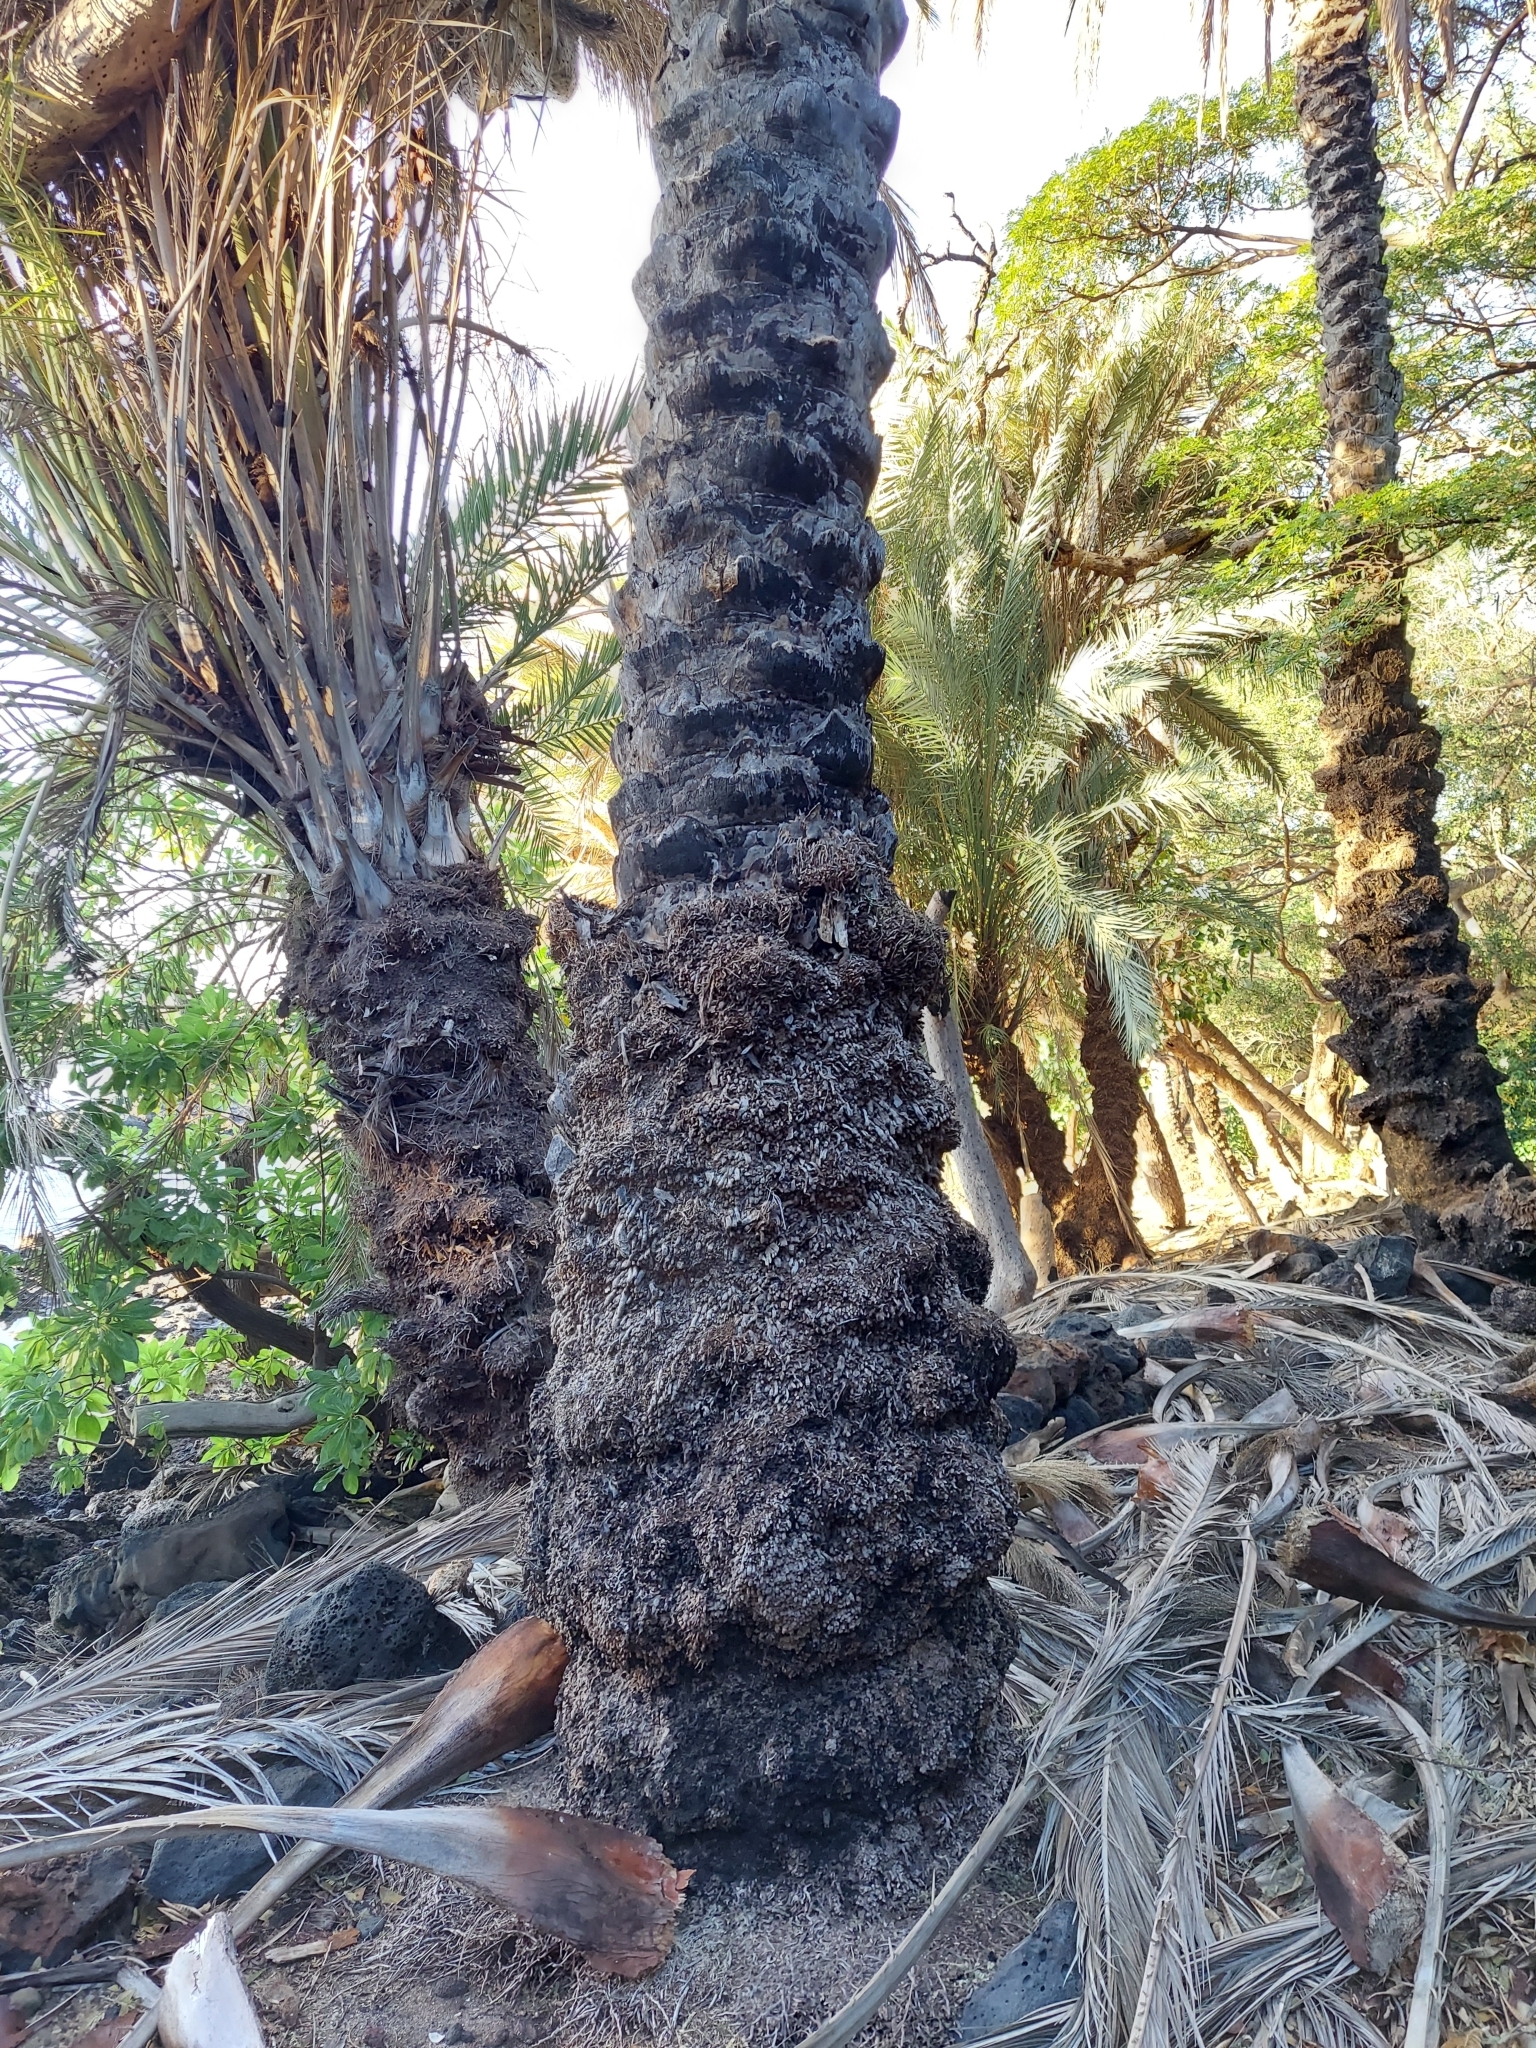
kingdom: Plantae
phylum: Tracheophyta
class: Liliopsida
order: Arecales
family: Arecaceae
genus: Phoenix
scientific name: Phoenix dactylifera
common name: Date palm
